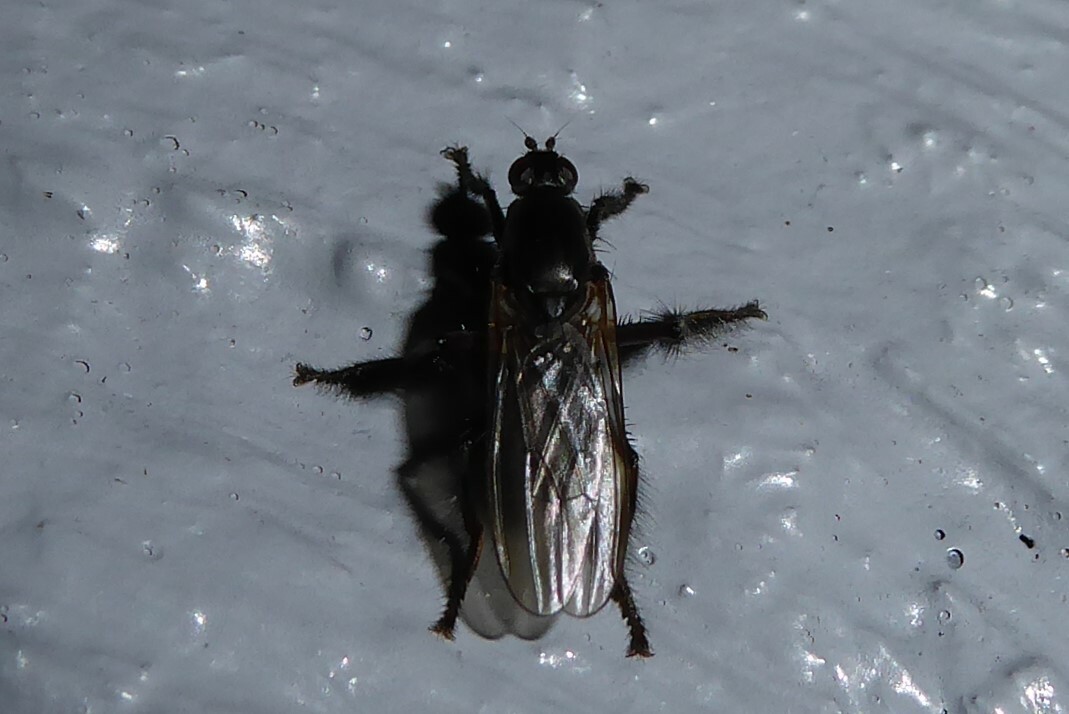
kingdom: Animalia
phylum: Arthropoda
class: Insecta
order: Diptera
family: Coelopidae
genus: Chaetocoelopa
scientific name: Chaetocoelopa littoralis
